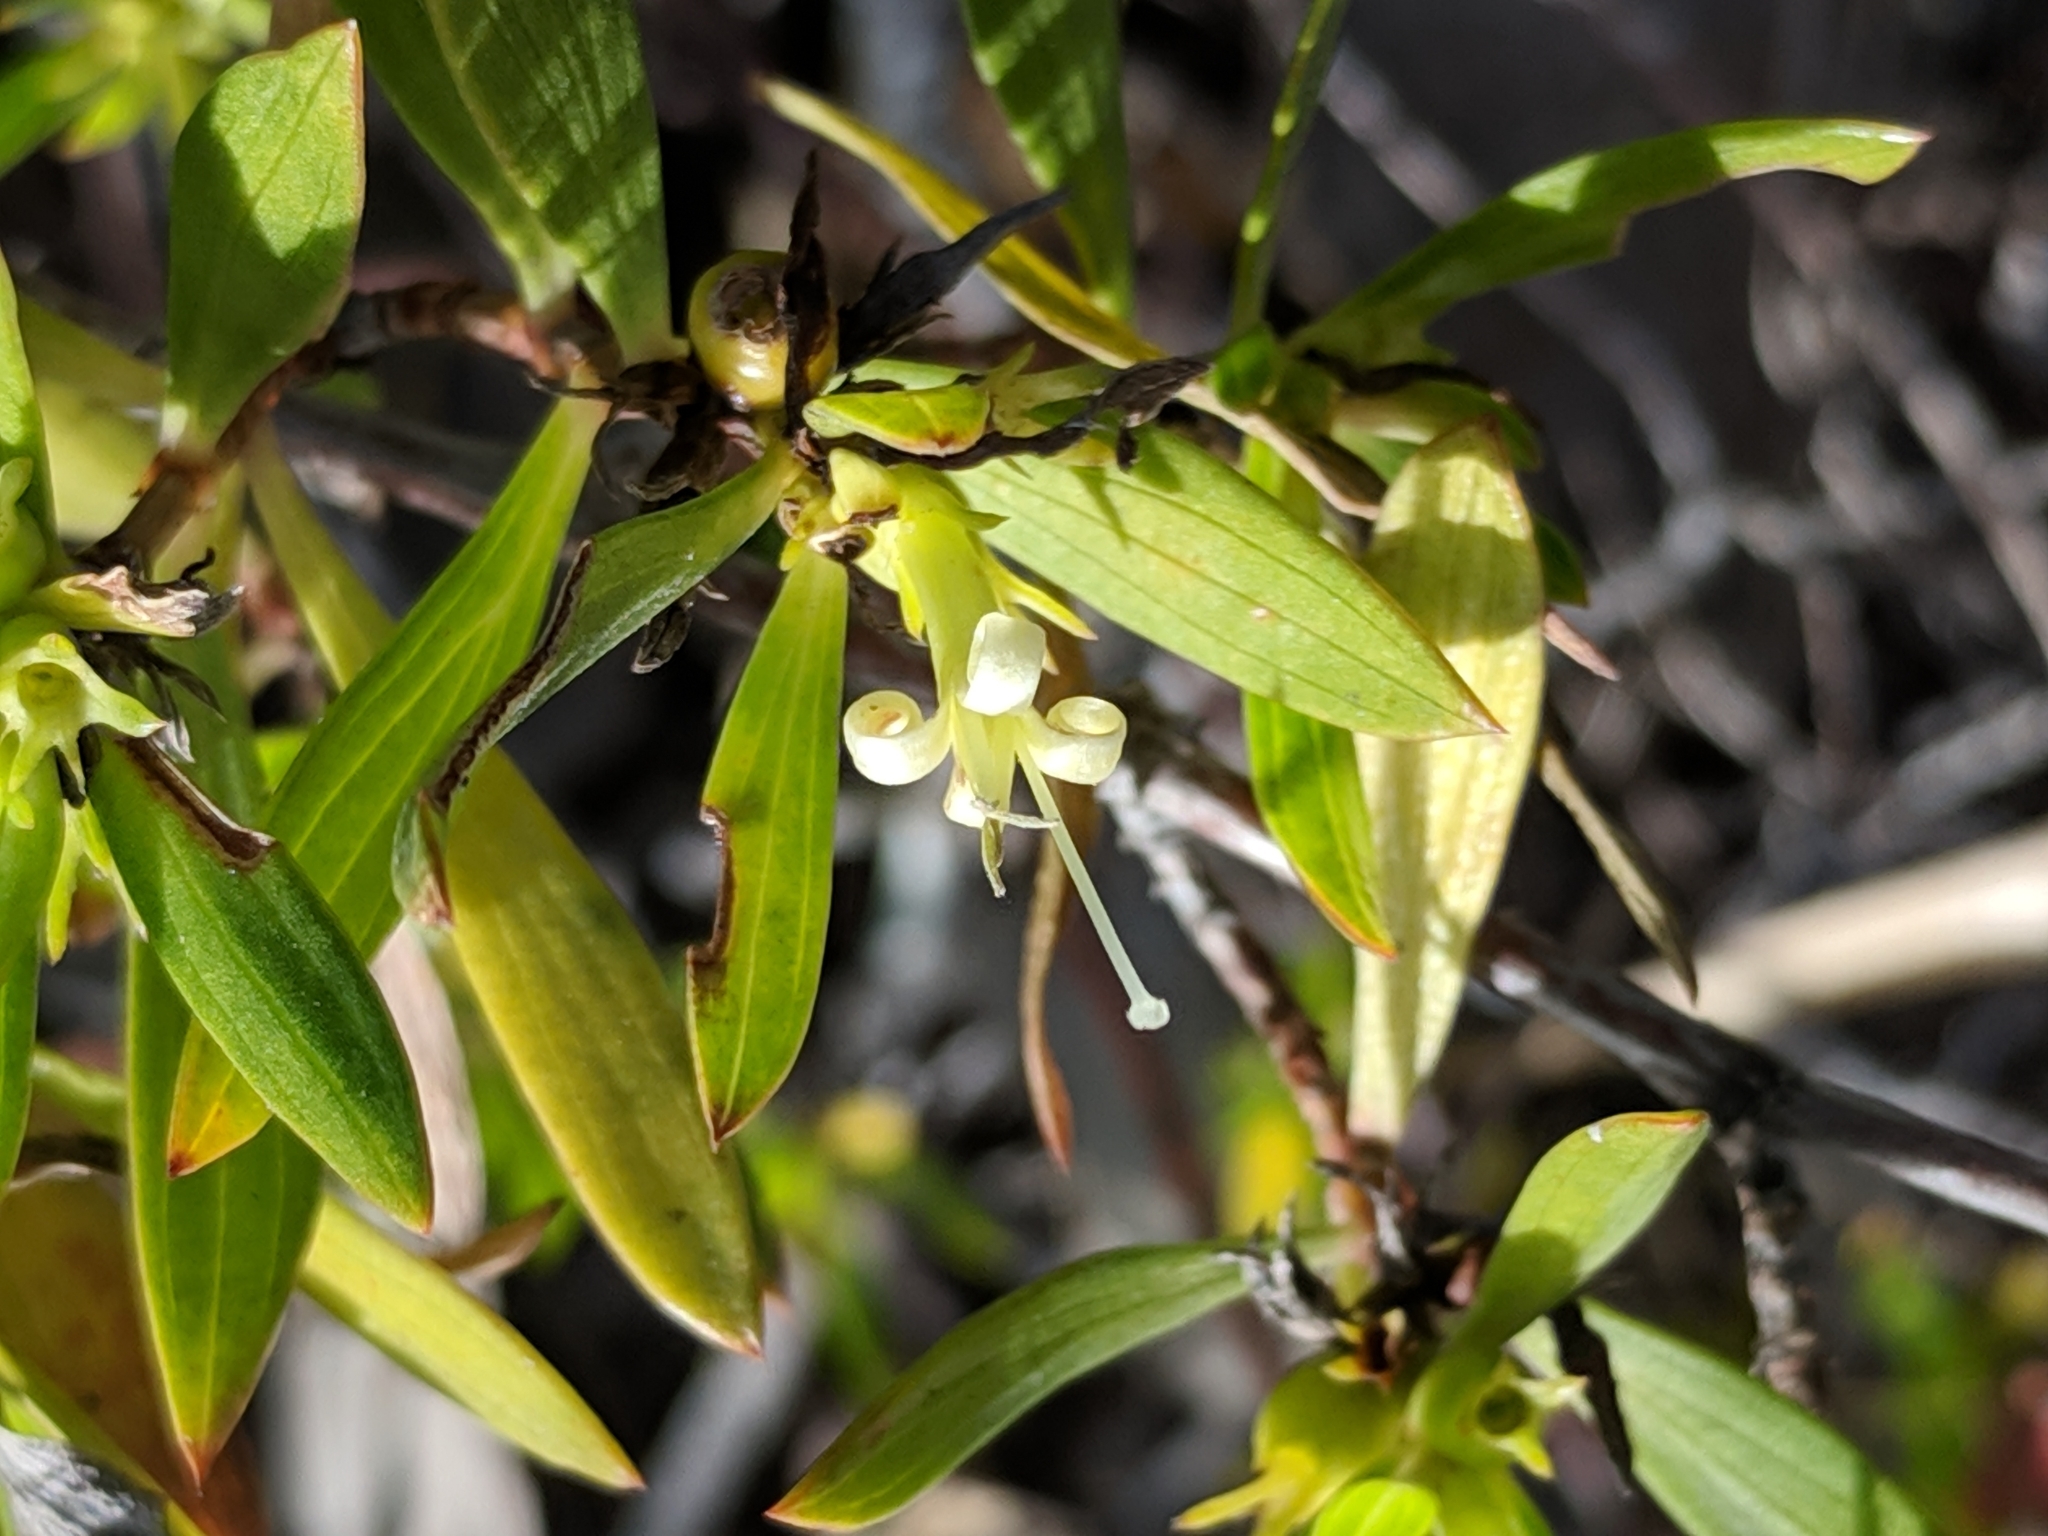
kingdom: Plantae
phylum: Tracheophyta
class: Magnoliopsida
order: Gentianales
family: Rubiaceae
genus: Ernodea
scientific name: Ernodea littoralis
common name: Beach creeper
